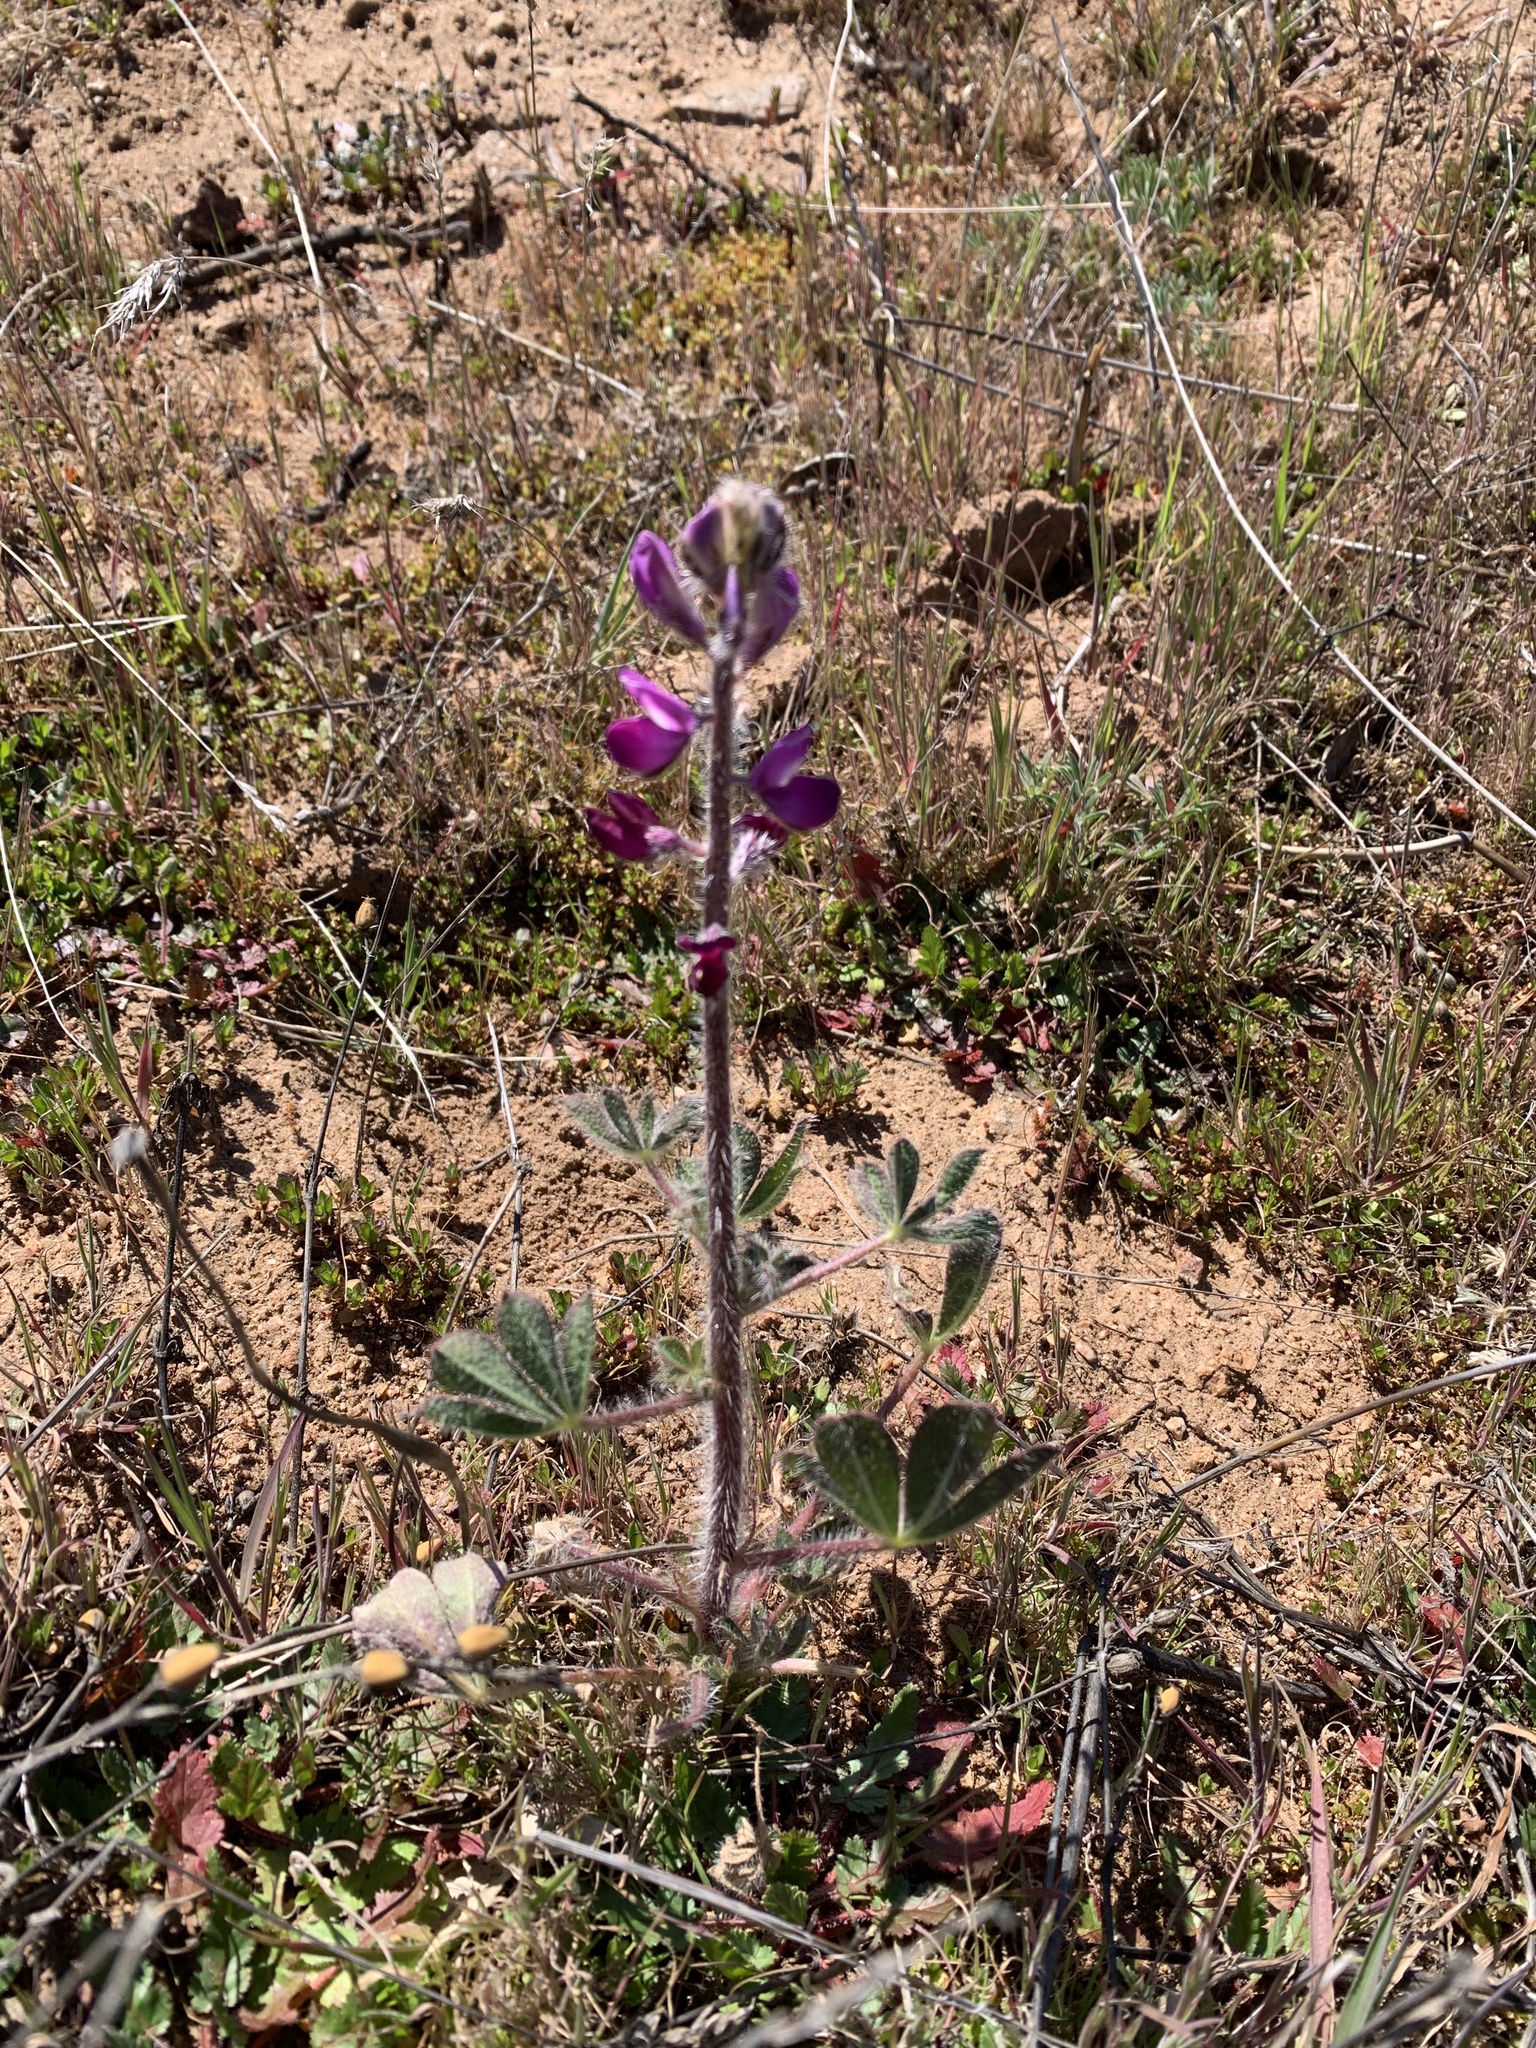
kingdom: Plantae
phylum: Tracheophyta
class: Magnoliopsida
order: Fabales
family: Fabaceae
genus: Lupinus
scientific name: Lupinus hirsutissimus
